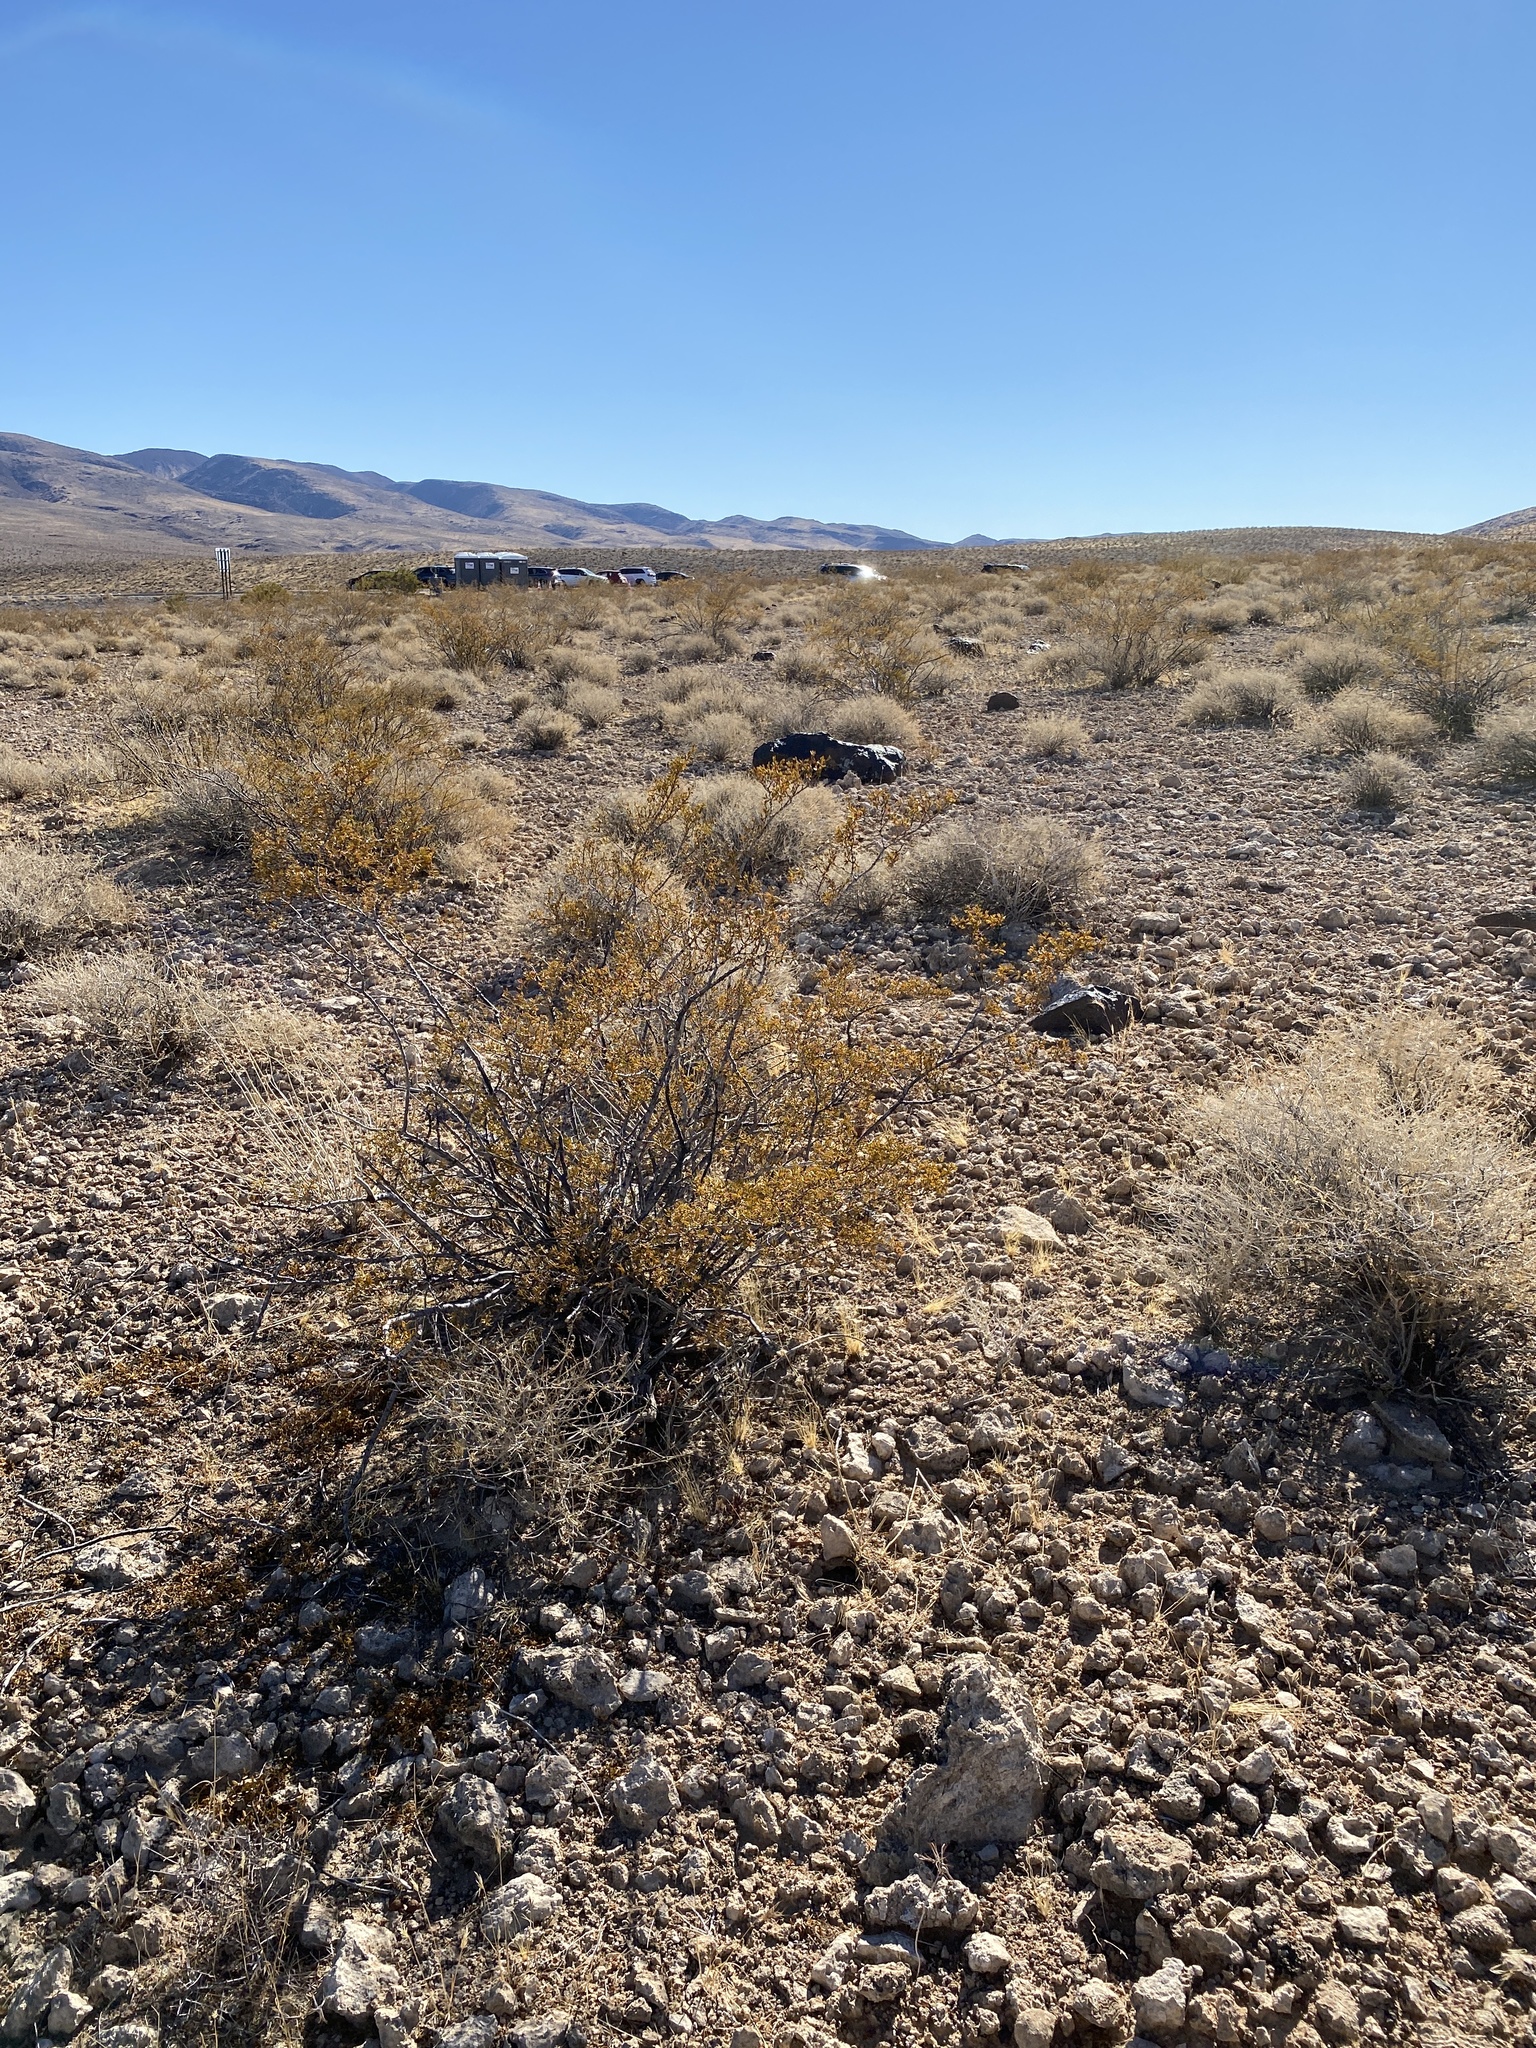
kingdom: Plantae
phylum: Tracheophyta
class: Magnoliopsida
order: Zygophyllales
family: Zygophyllaceae
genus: Larrea
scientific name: Larrea tridentata
